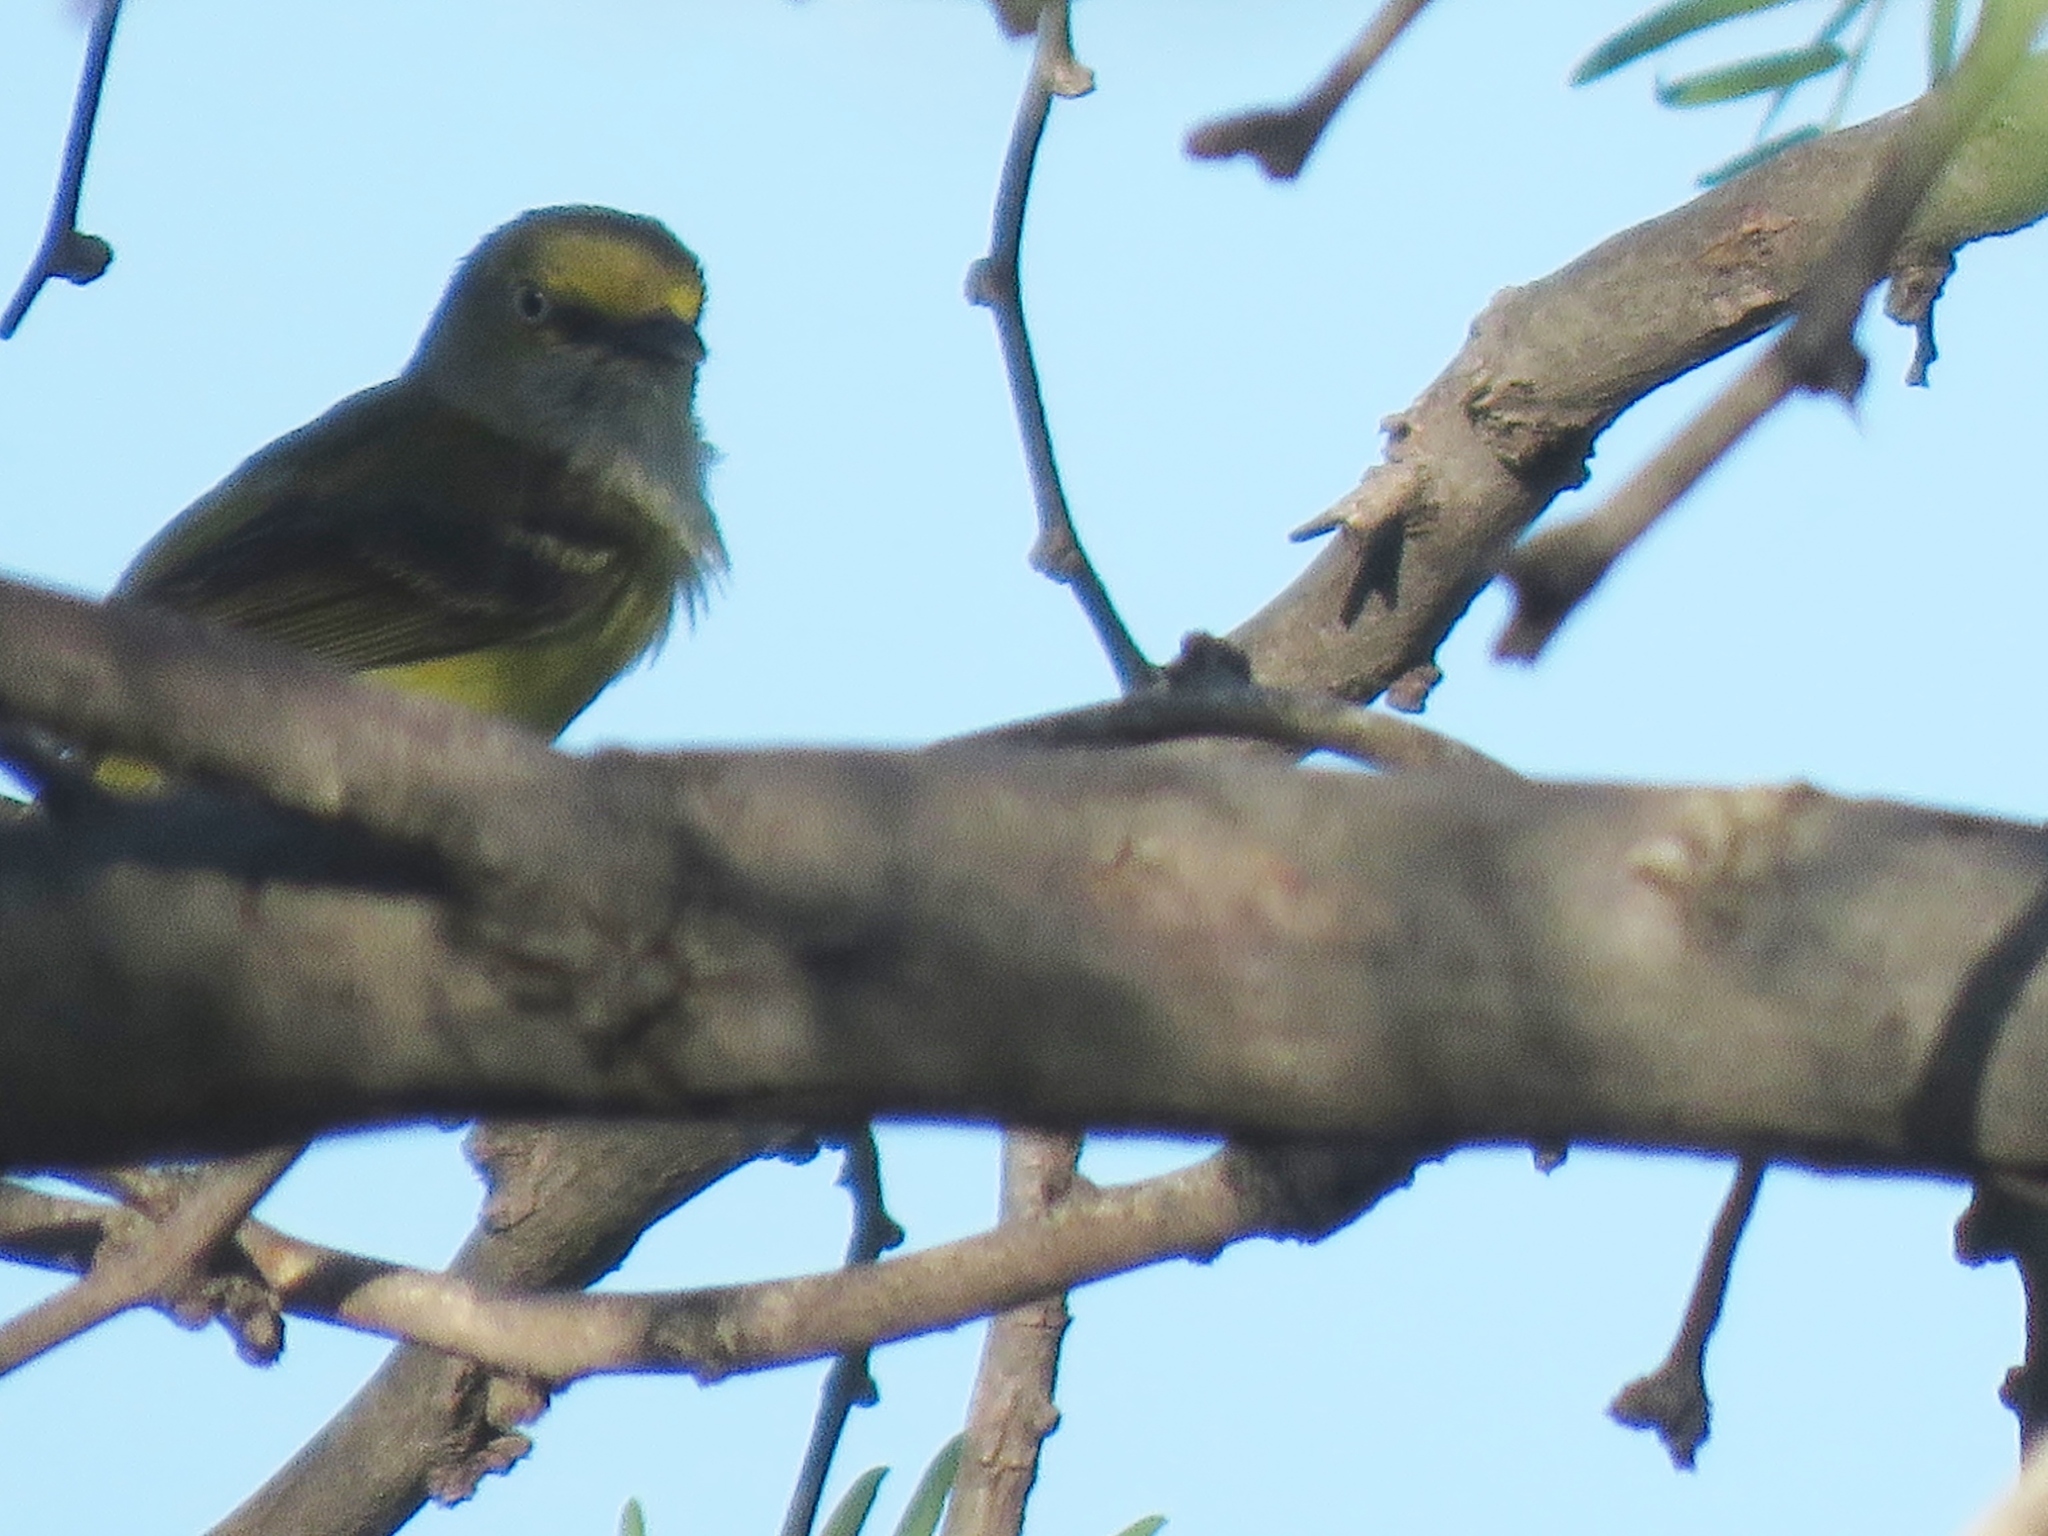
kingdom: Animalia
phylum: Chordata
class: Aves
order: Passeriformes
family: Vireonidae
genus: Vireo
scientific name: Vireo griseus
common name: White-eyed vireo
